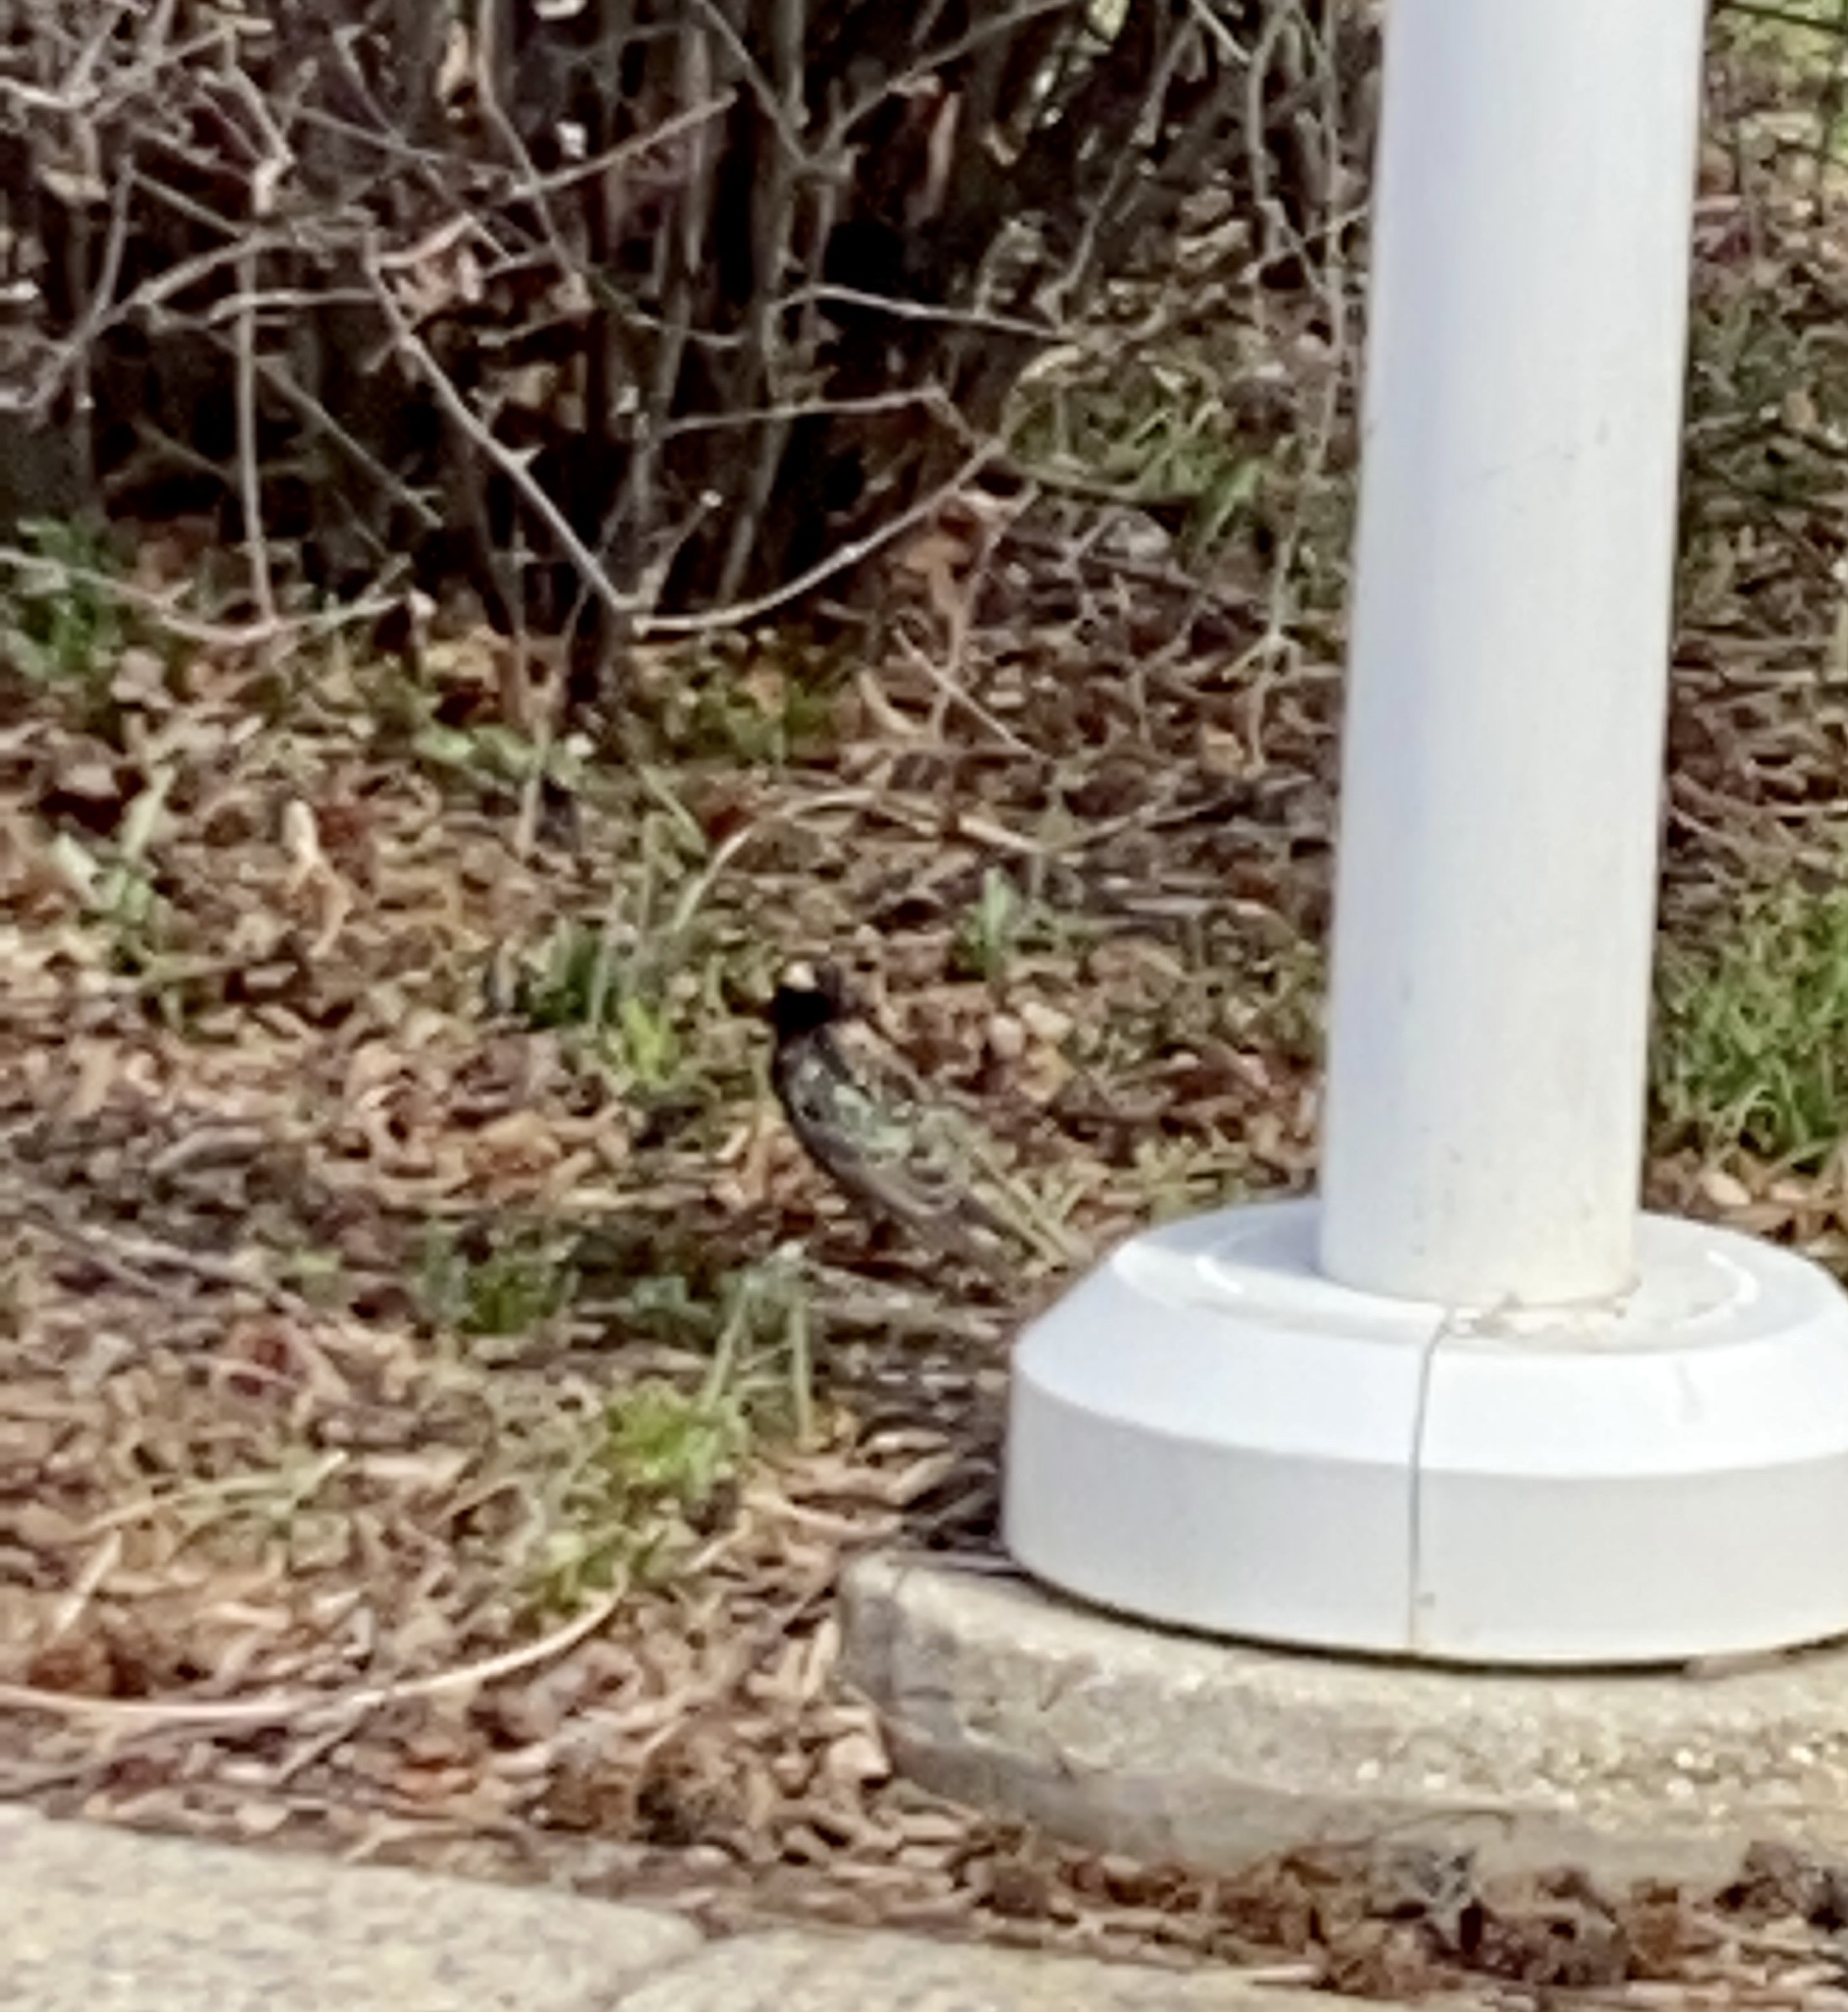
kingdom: Animalia
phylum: Chordata
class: Aves
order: Passeriformes
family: Sturnidae
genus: Sturnus
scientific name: Sturnus vulgaris
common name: Common starling
